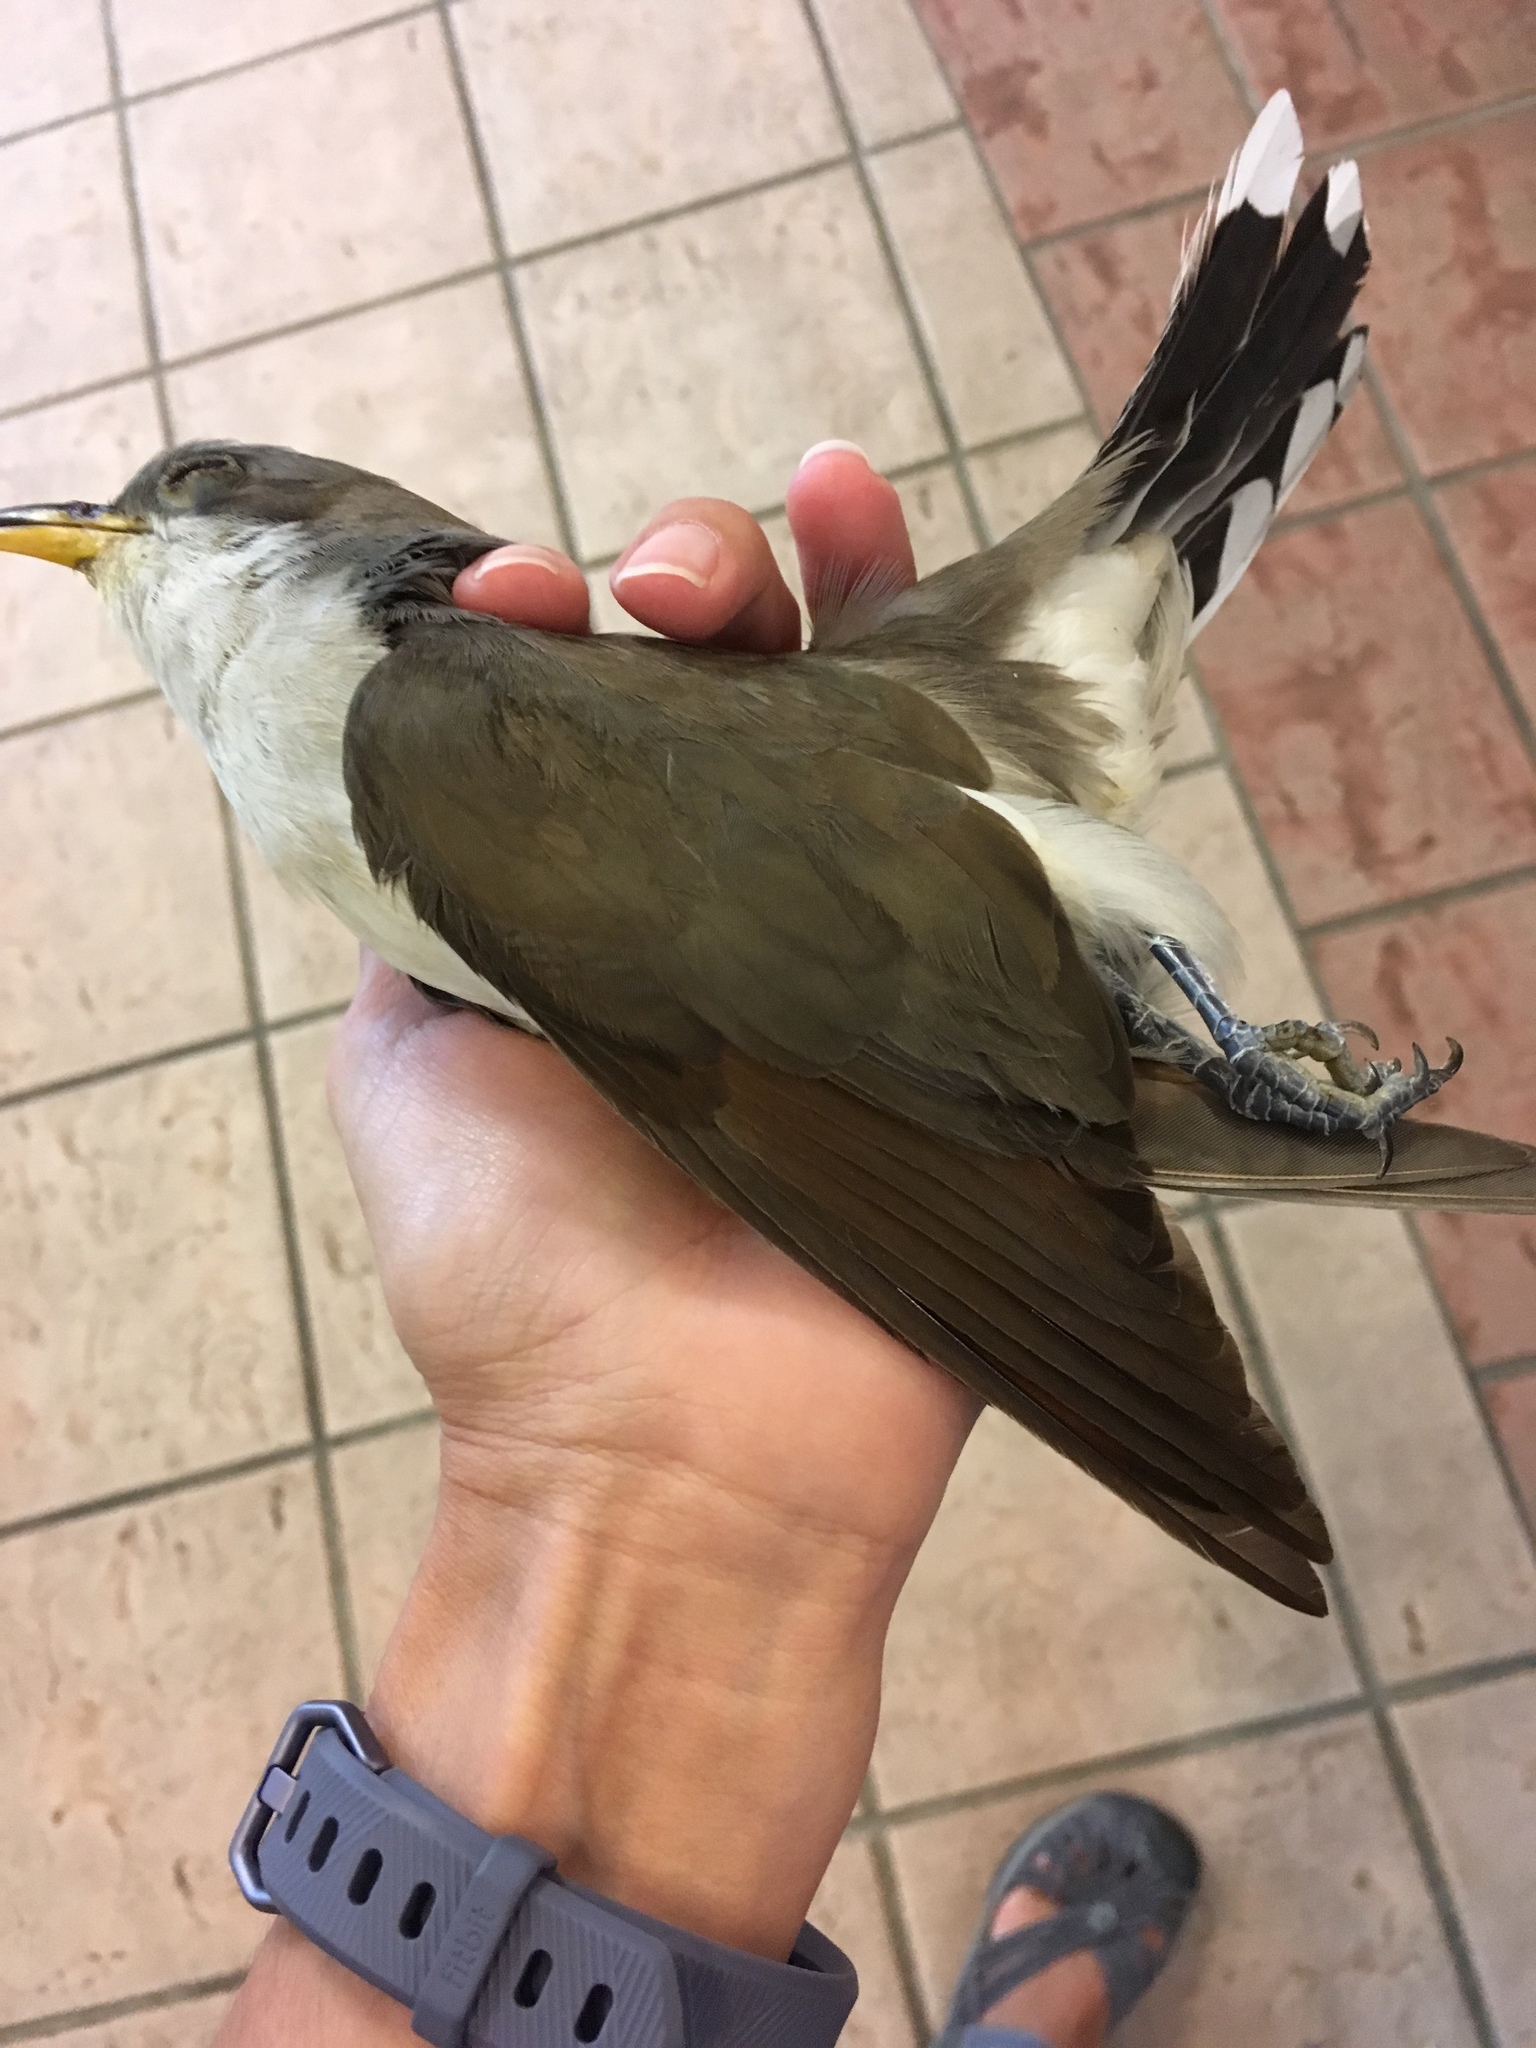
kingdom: Animalia
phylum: Chordata
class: Aves
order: Cuculiformes
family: Cuculidae
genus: Coccyzus
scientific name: Coccyzus americanus
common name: Yellow-billed cuckoo
